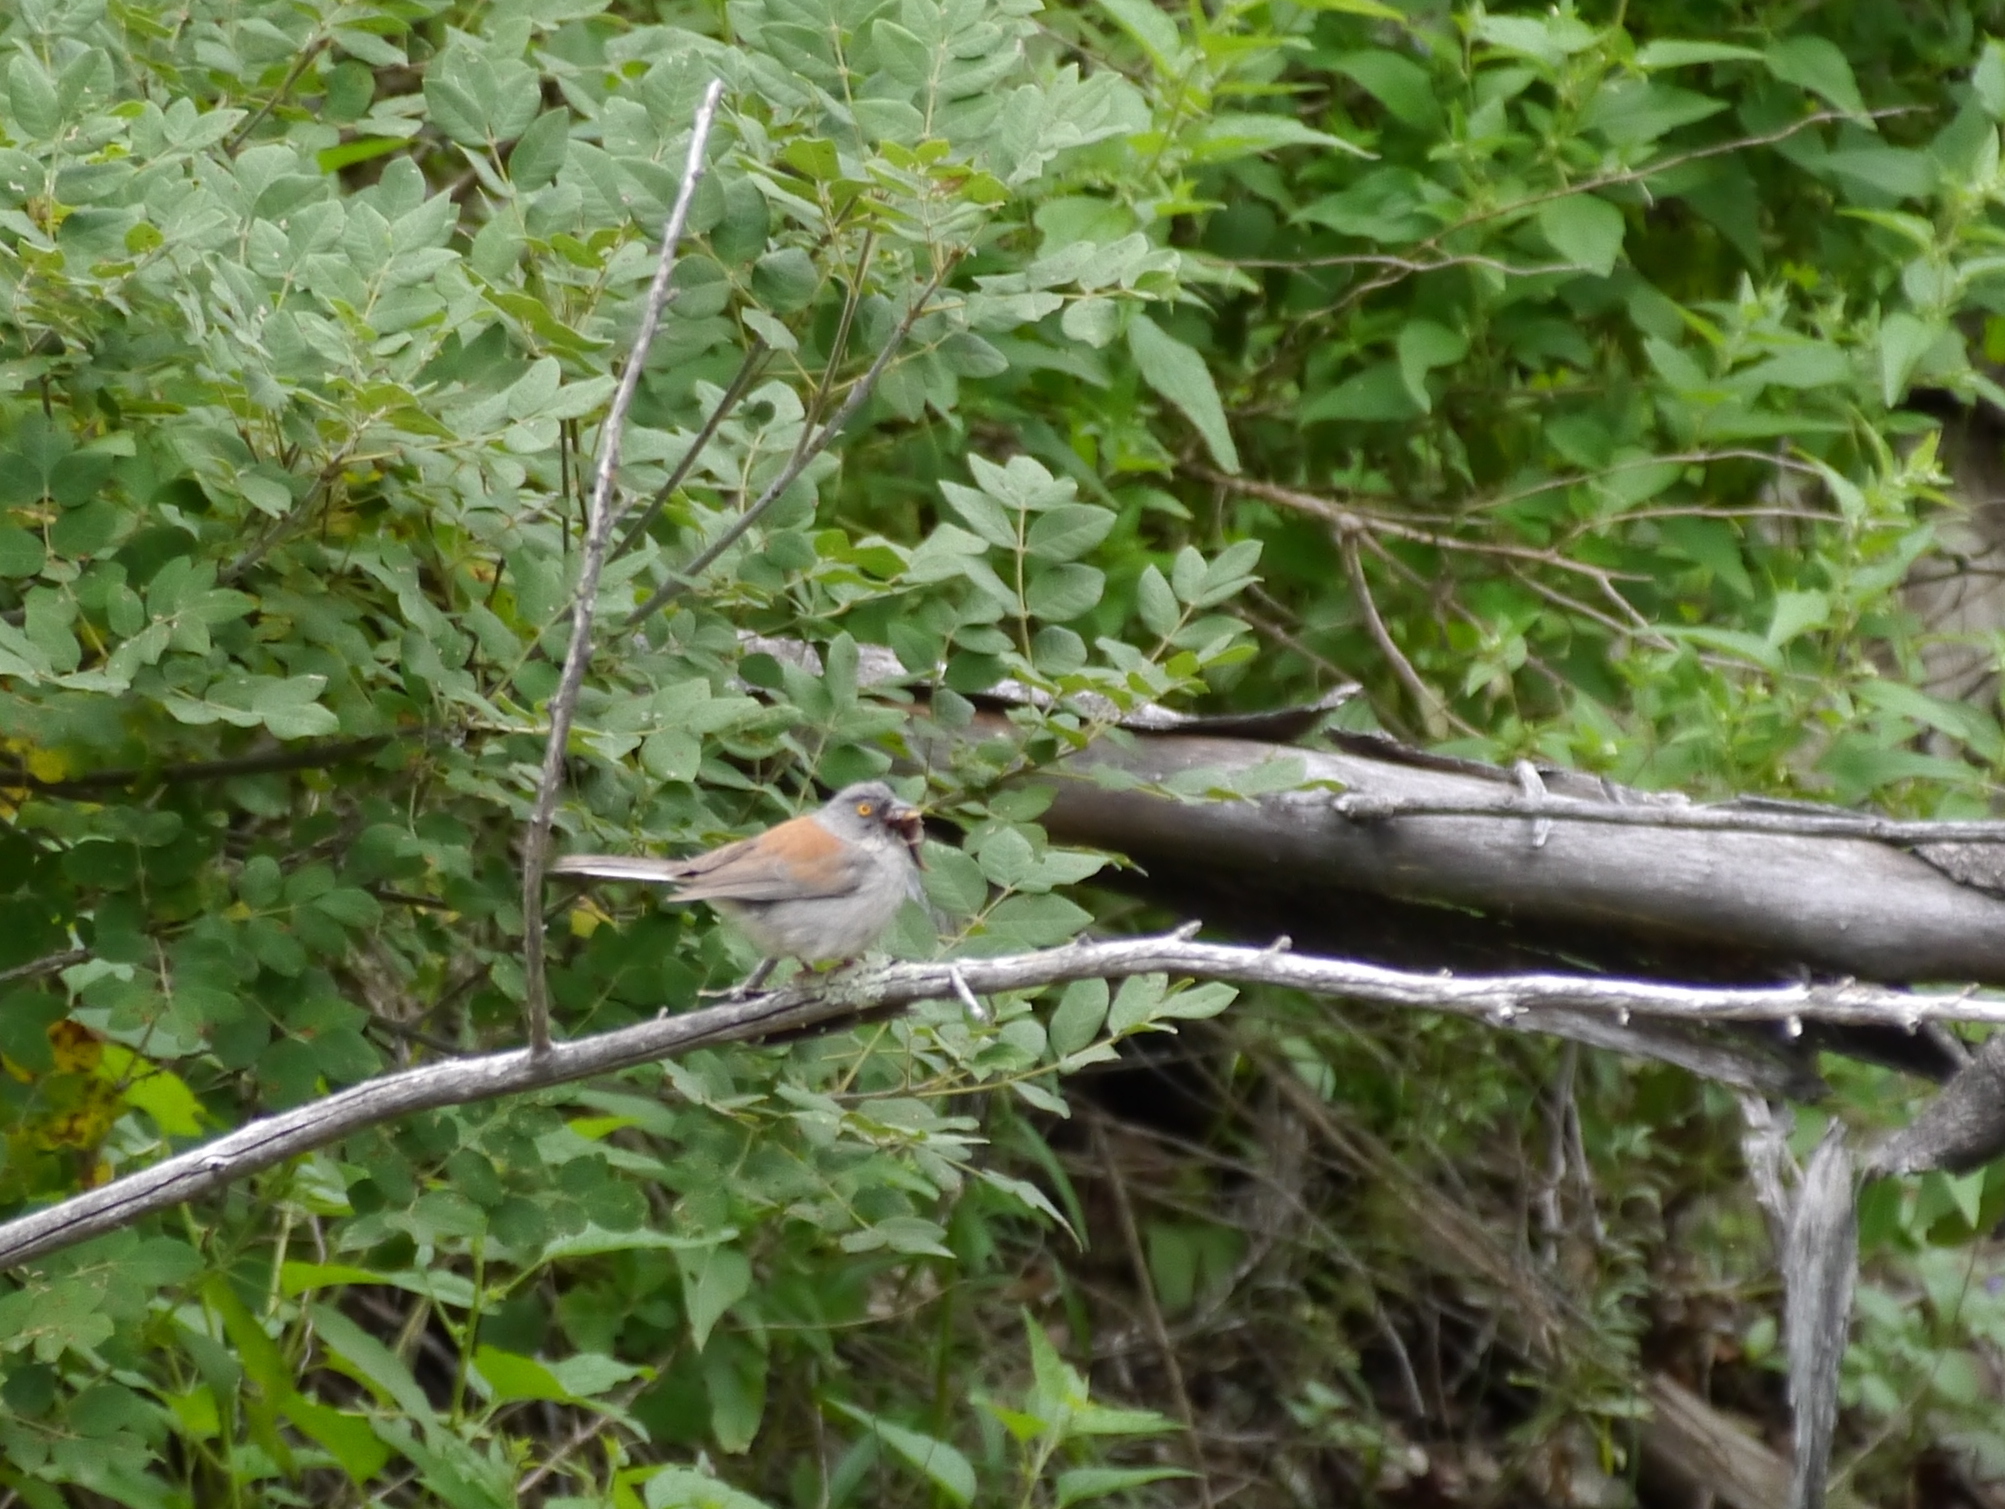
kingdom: Animalia
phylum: Chordata
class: Aves
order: Passeriformes
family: Passerellidae
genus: Junco
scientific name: Junco phaeonotus
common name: Yellow-eyed junco
